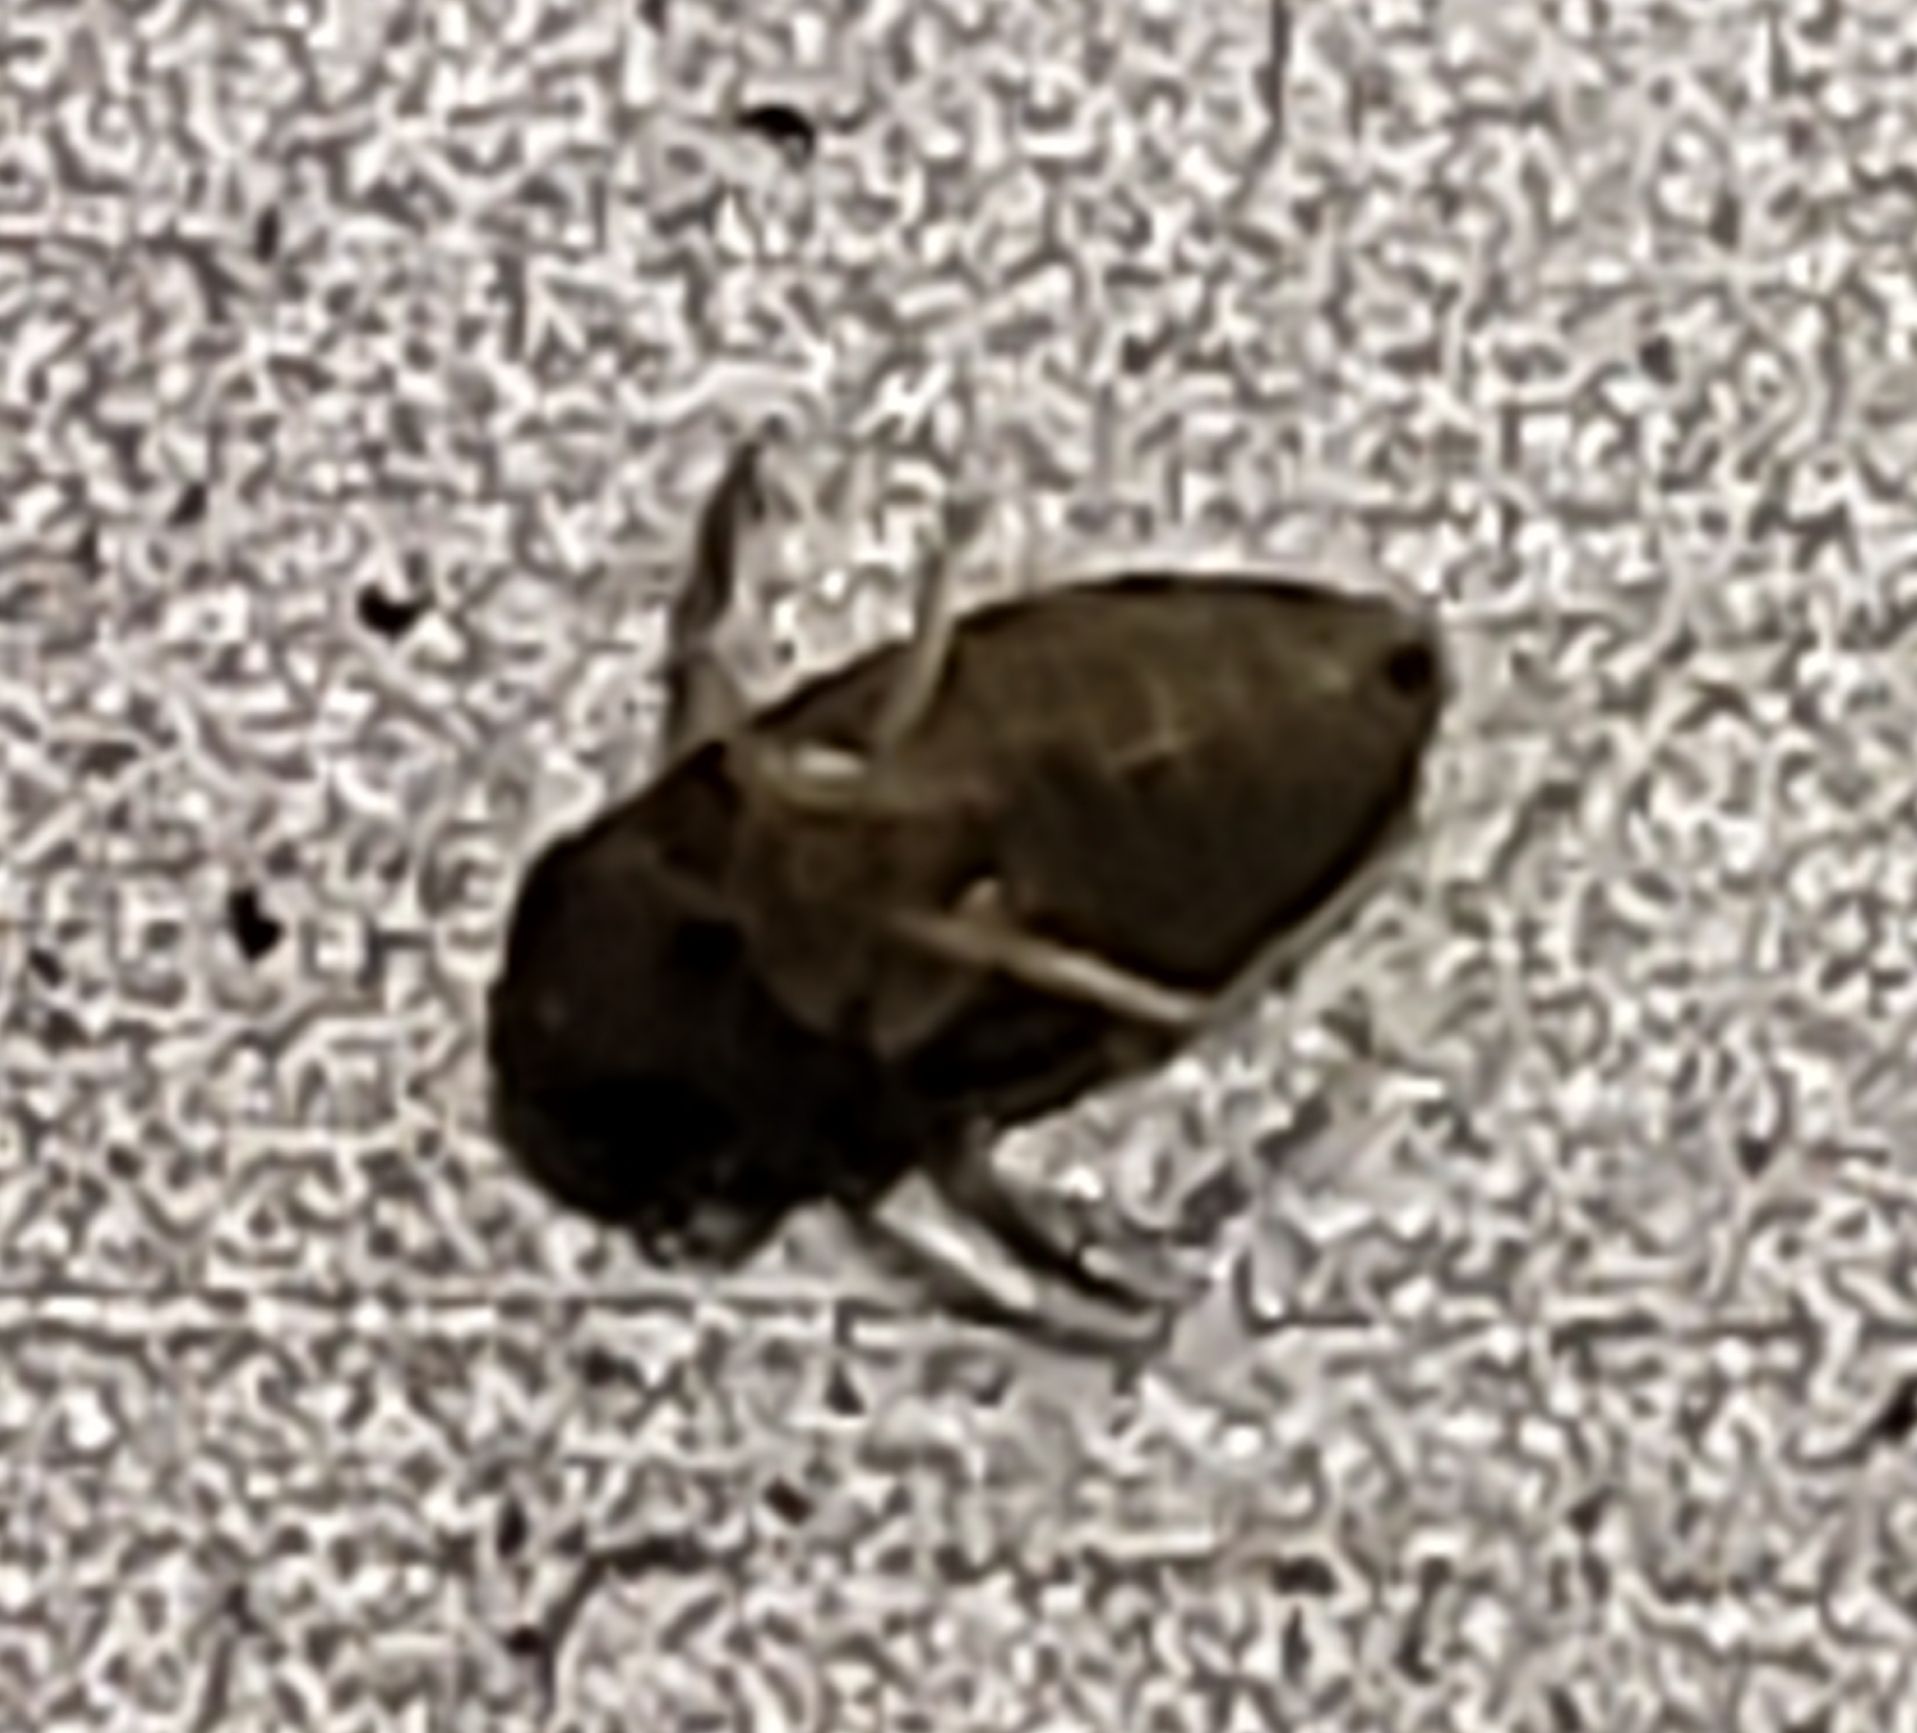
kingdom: Animalia
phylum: Arthropoda
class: Insecta
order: Hemiptera
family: Micronectidae
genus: Micronecta
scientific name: Micronecta ludibunda
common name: Asian corixid
